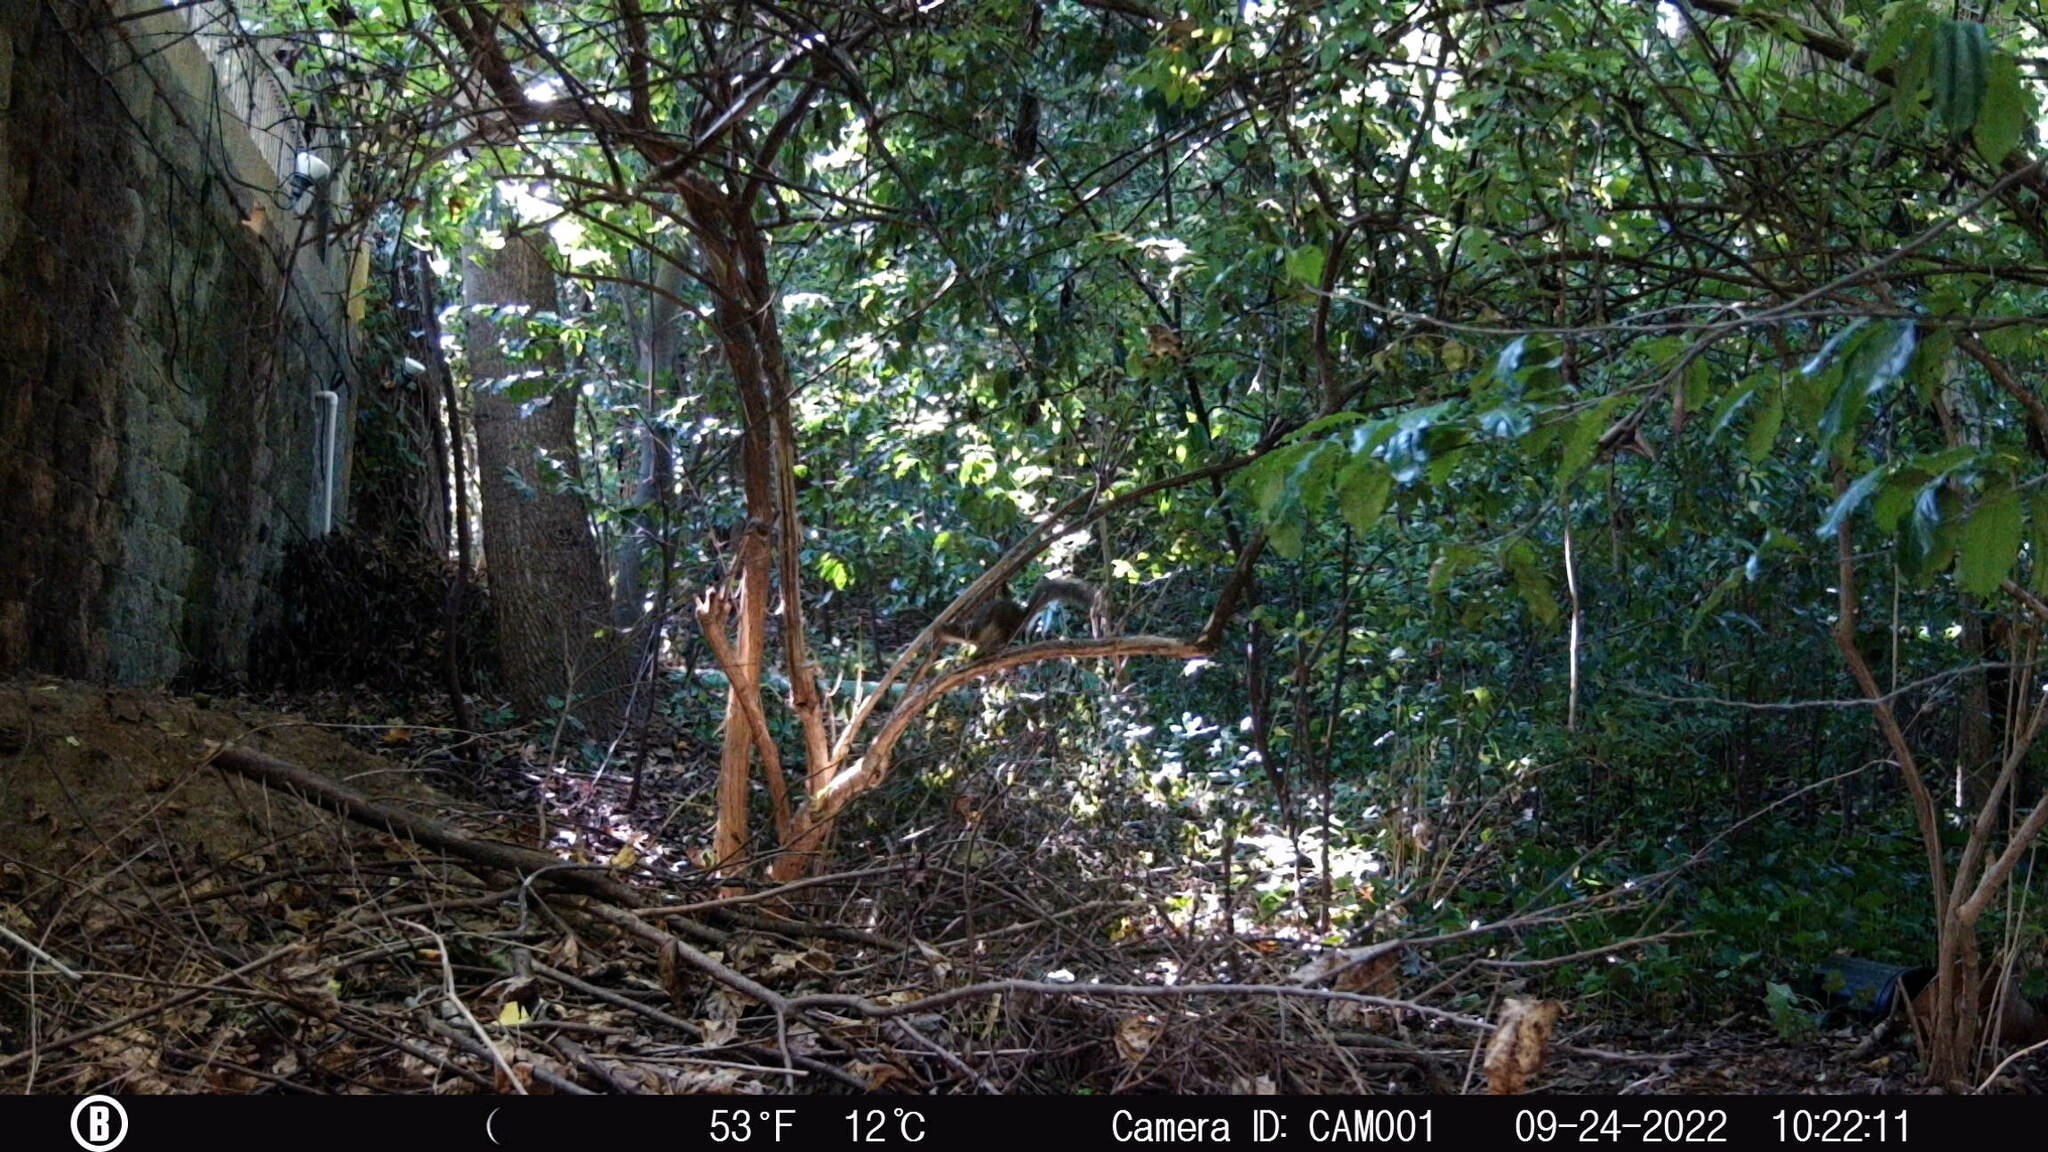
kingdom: Animalia
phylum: Chordata
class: Mammalia
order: Rodentia
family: Sciuridae
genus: Sciurus
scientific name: Sciurus carolinensis
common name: Eastern gray squirrel
